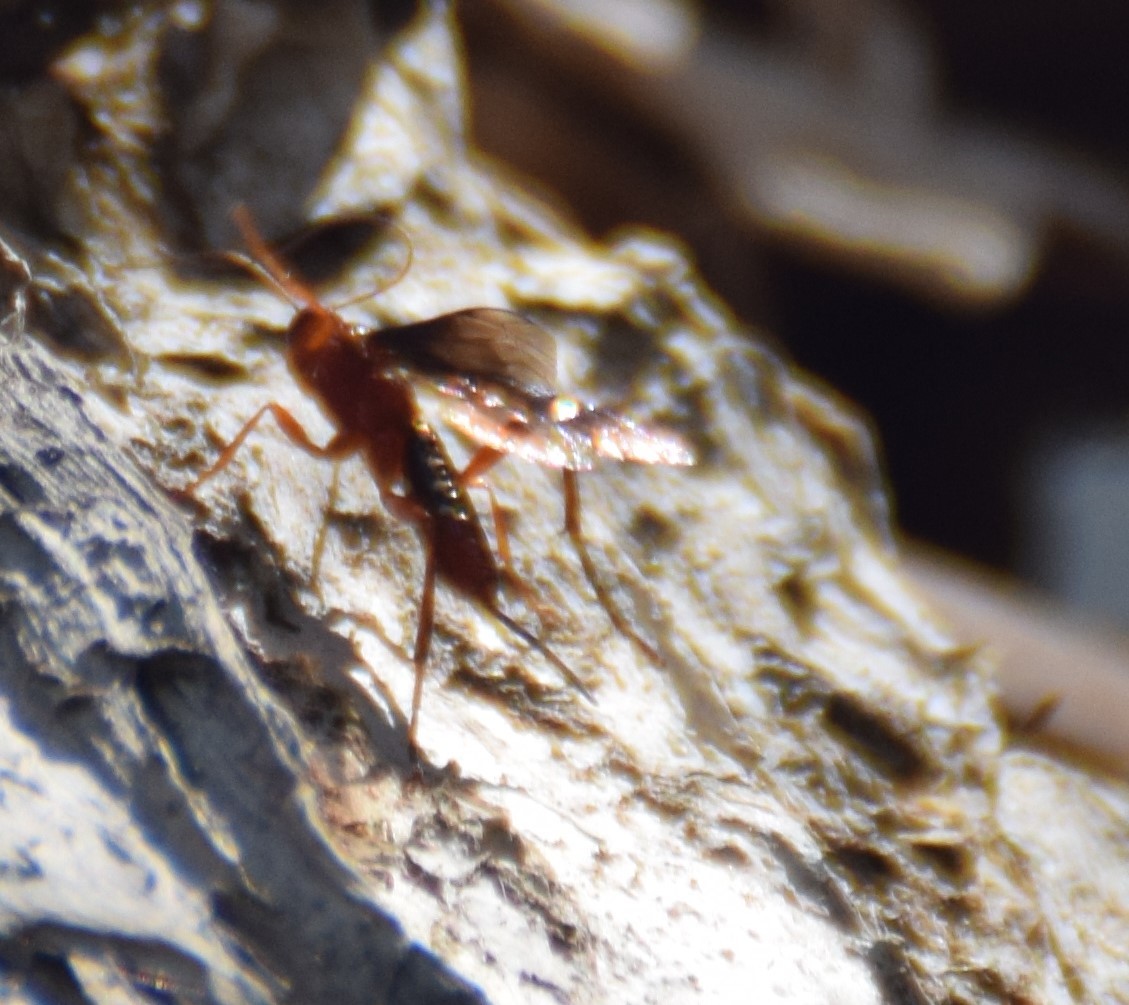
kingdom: Animalia
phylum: Arthropoda
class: Insecta
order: Hymenoptera
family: Ichneumonidae
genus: Lissopimpla
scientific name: Lissopimpla excelsa
